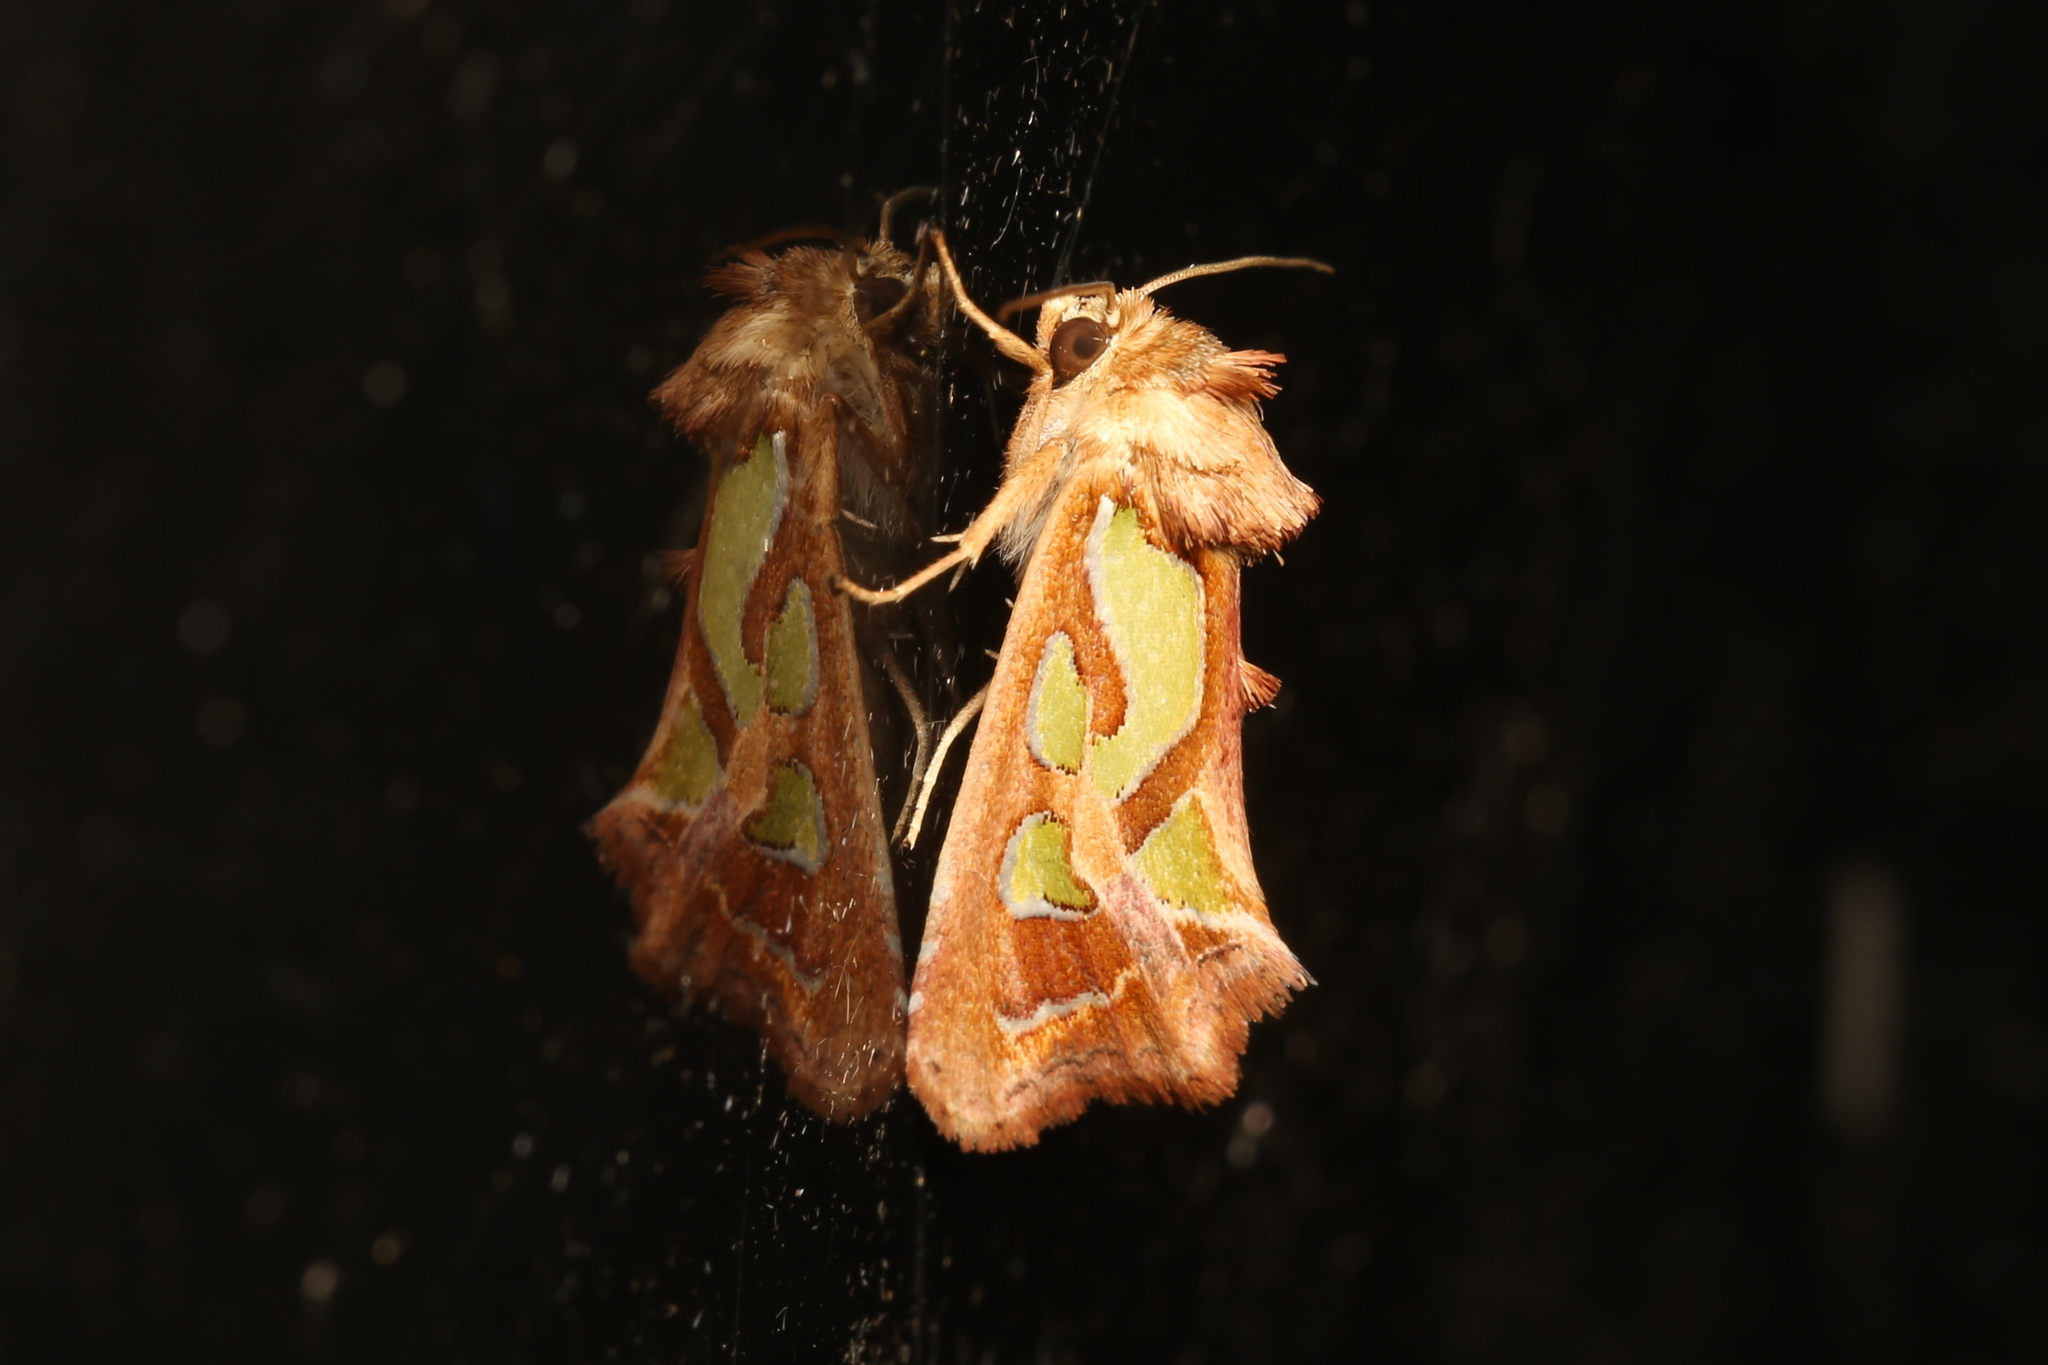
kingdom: Animalia
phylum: Arthropoda
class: Insecta
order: Lepidoptera
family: Noctuidae
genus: Cosmodes
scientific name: Cosmodes elegans
